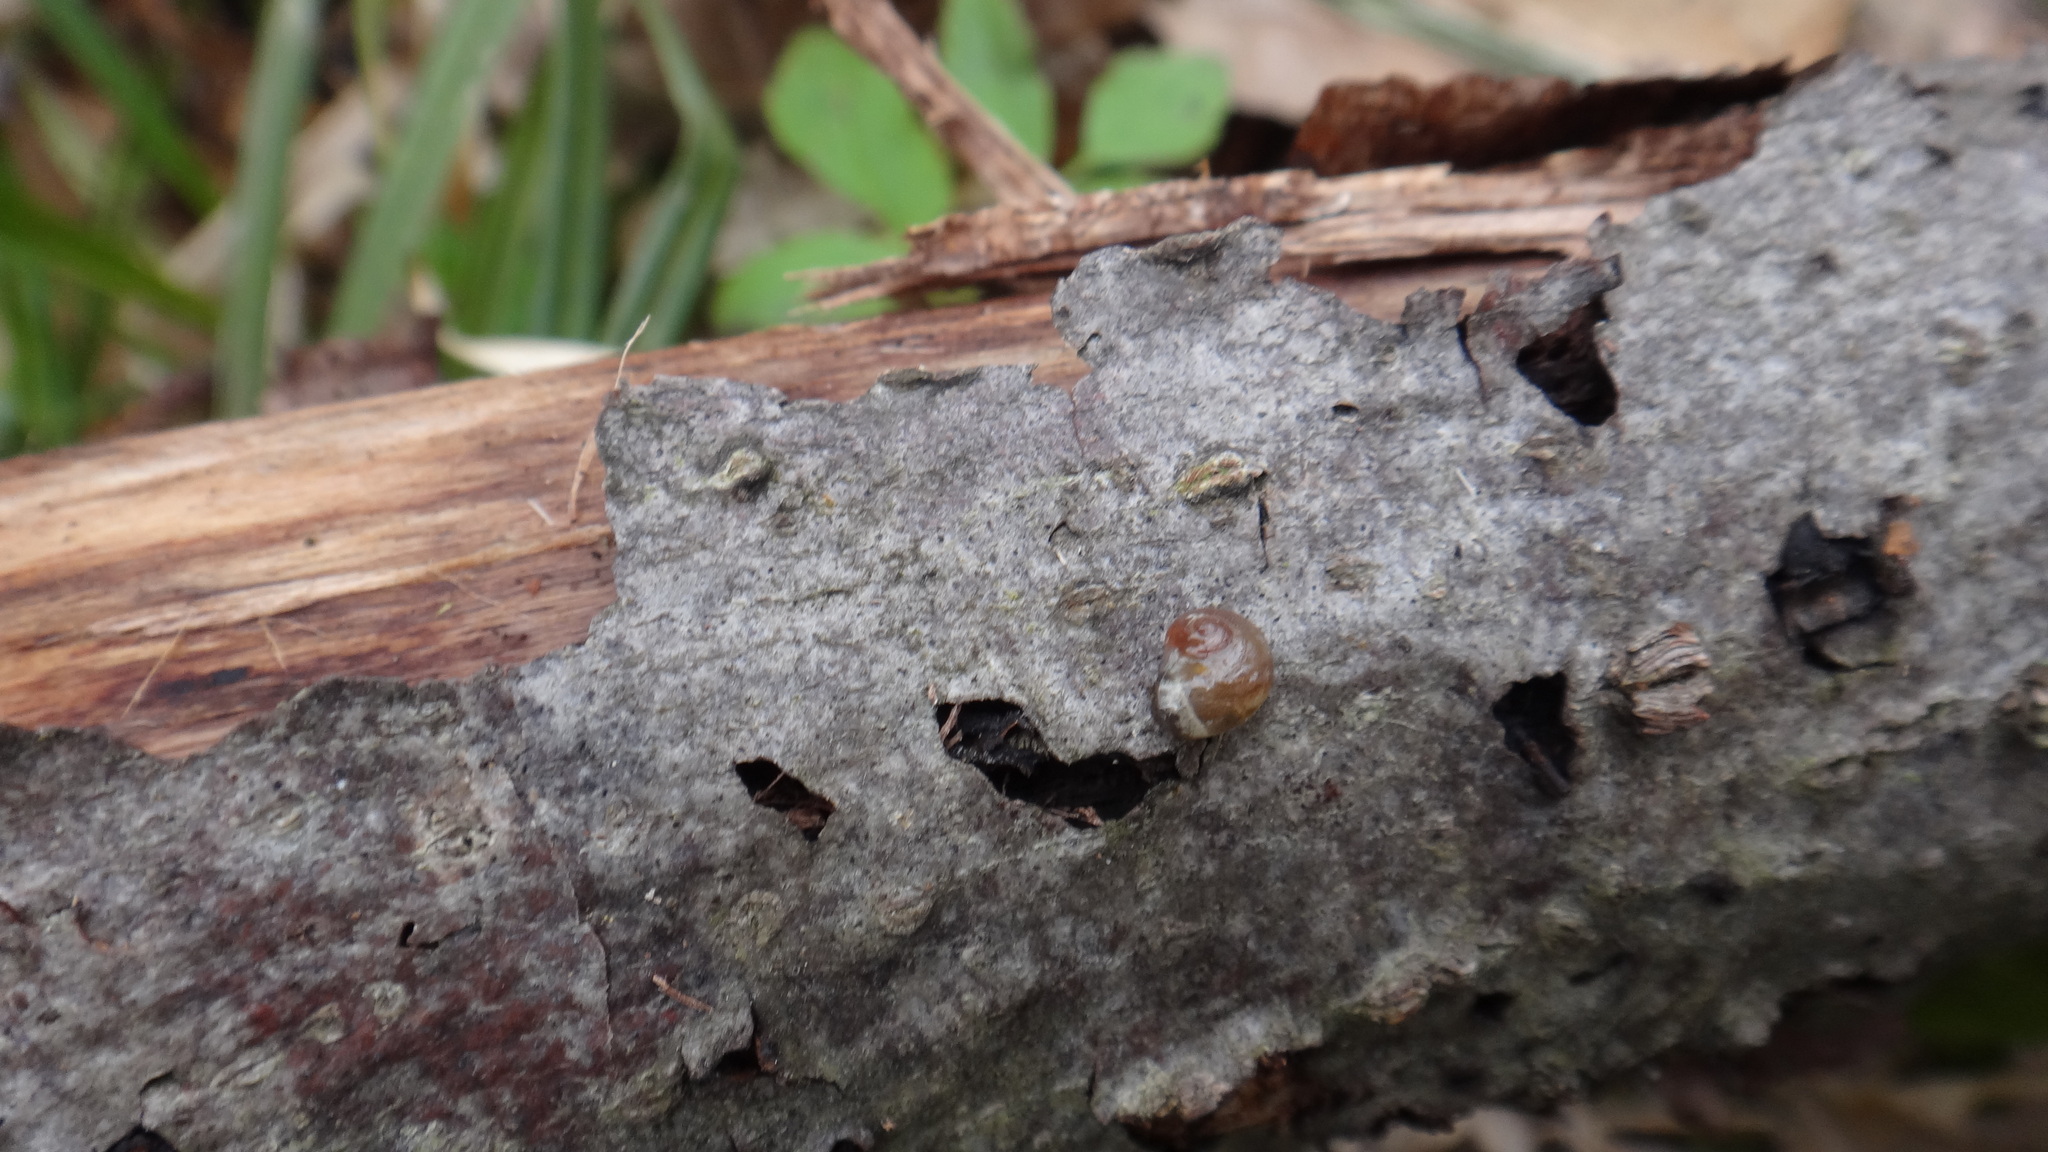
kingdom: Animalia
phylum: Mollusca
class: Gastropoda
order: Stylommatophora
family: Vitrinidae
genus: Vitrina
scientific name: Vitrina pellucida
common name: Pellucid glass snail
